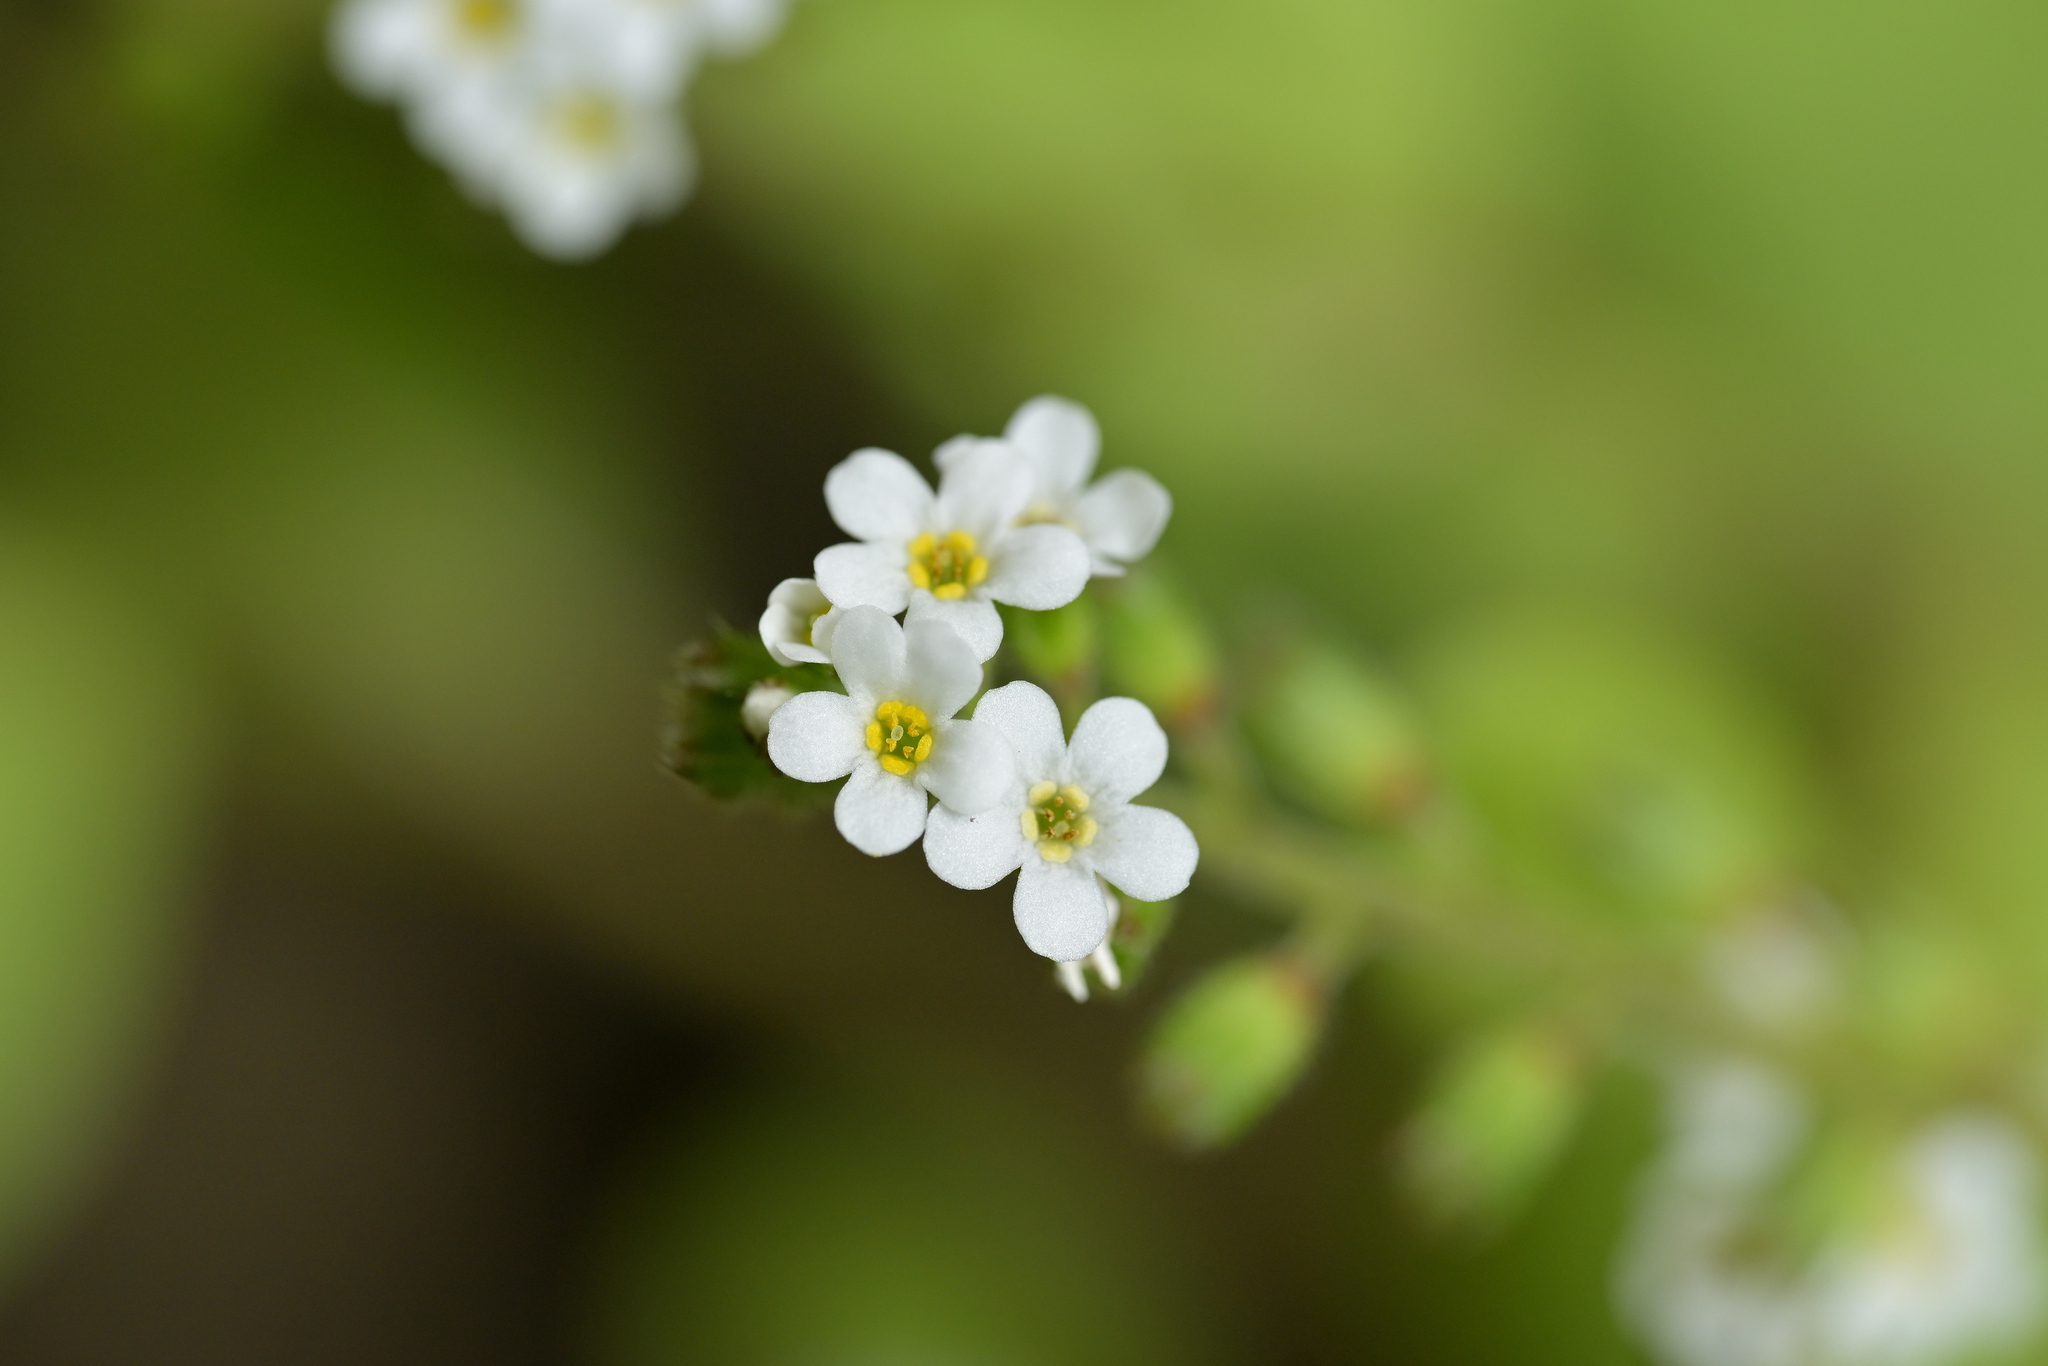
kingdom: Plantae
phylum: Tracheophyta
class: Magnoliopsida
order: Boraginales
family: Boraginaceae
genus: Myosotis
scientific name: Myosotis forsteri
